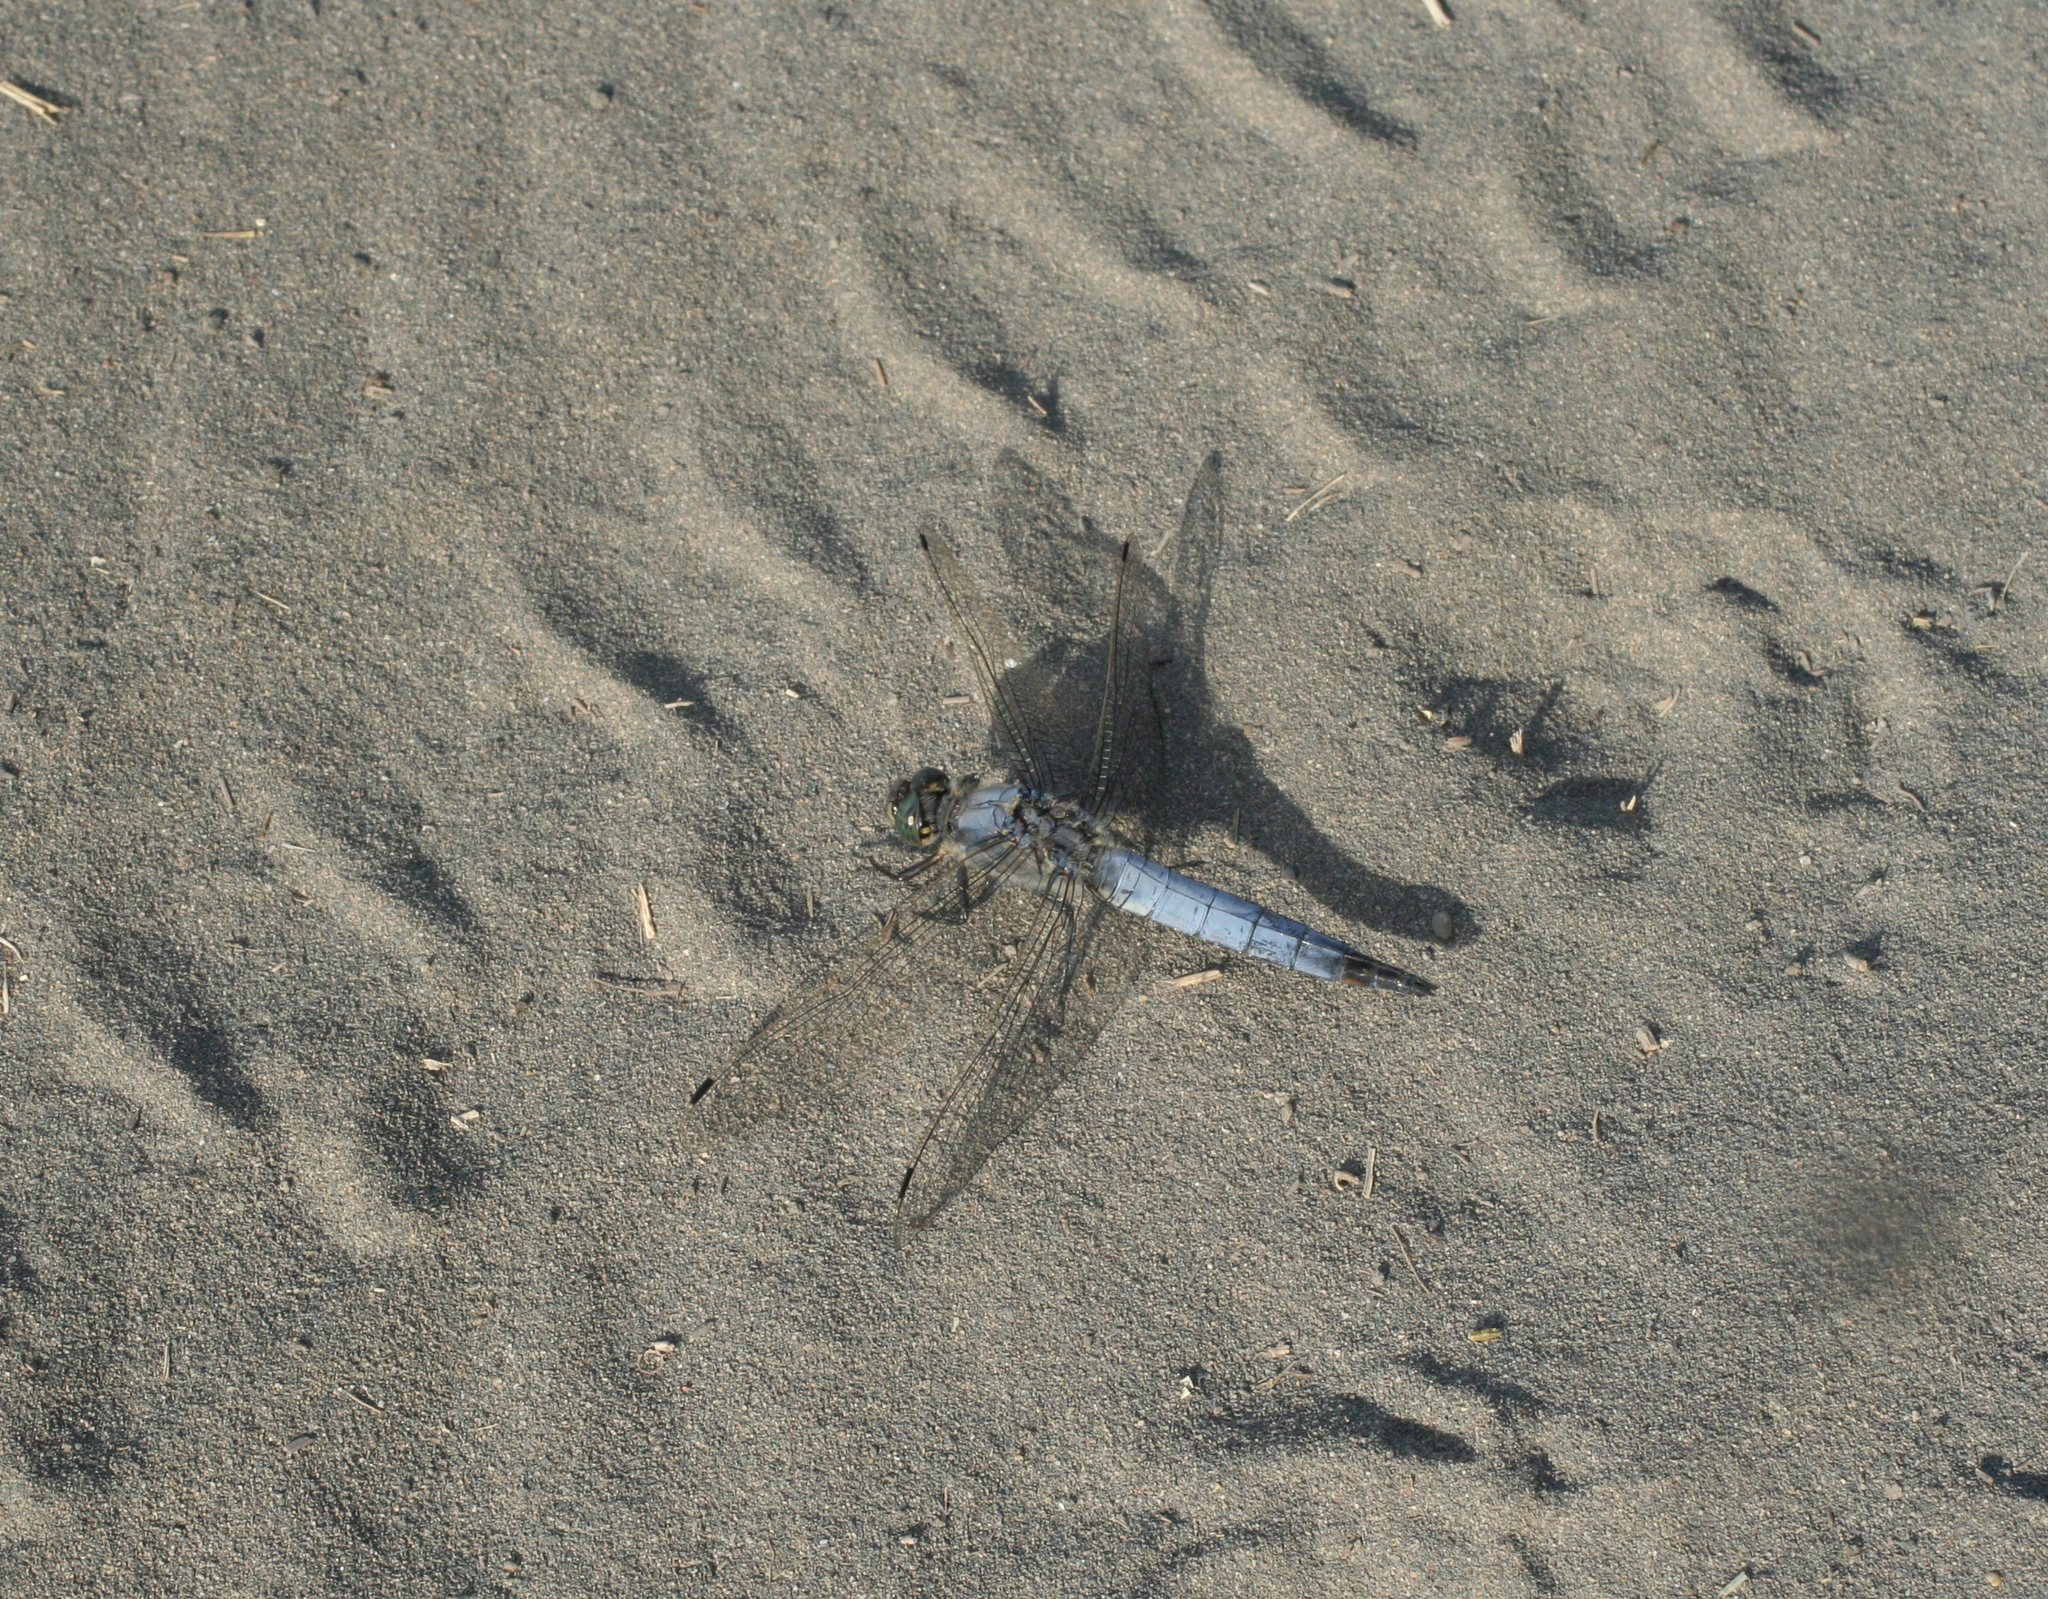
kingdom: Animalia
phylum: Arthropoda
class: Insecta
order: Odonata
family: Libellulidae
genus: Orthetrum
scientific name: Orthetrum cancellatum
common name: Black-tailed skimmer
